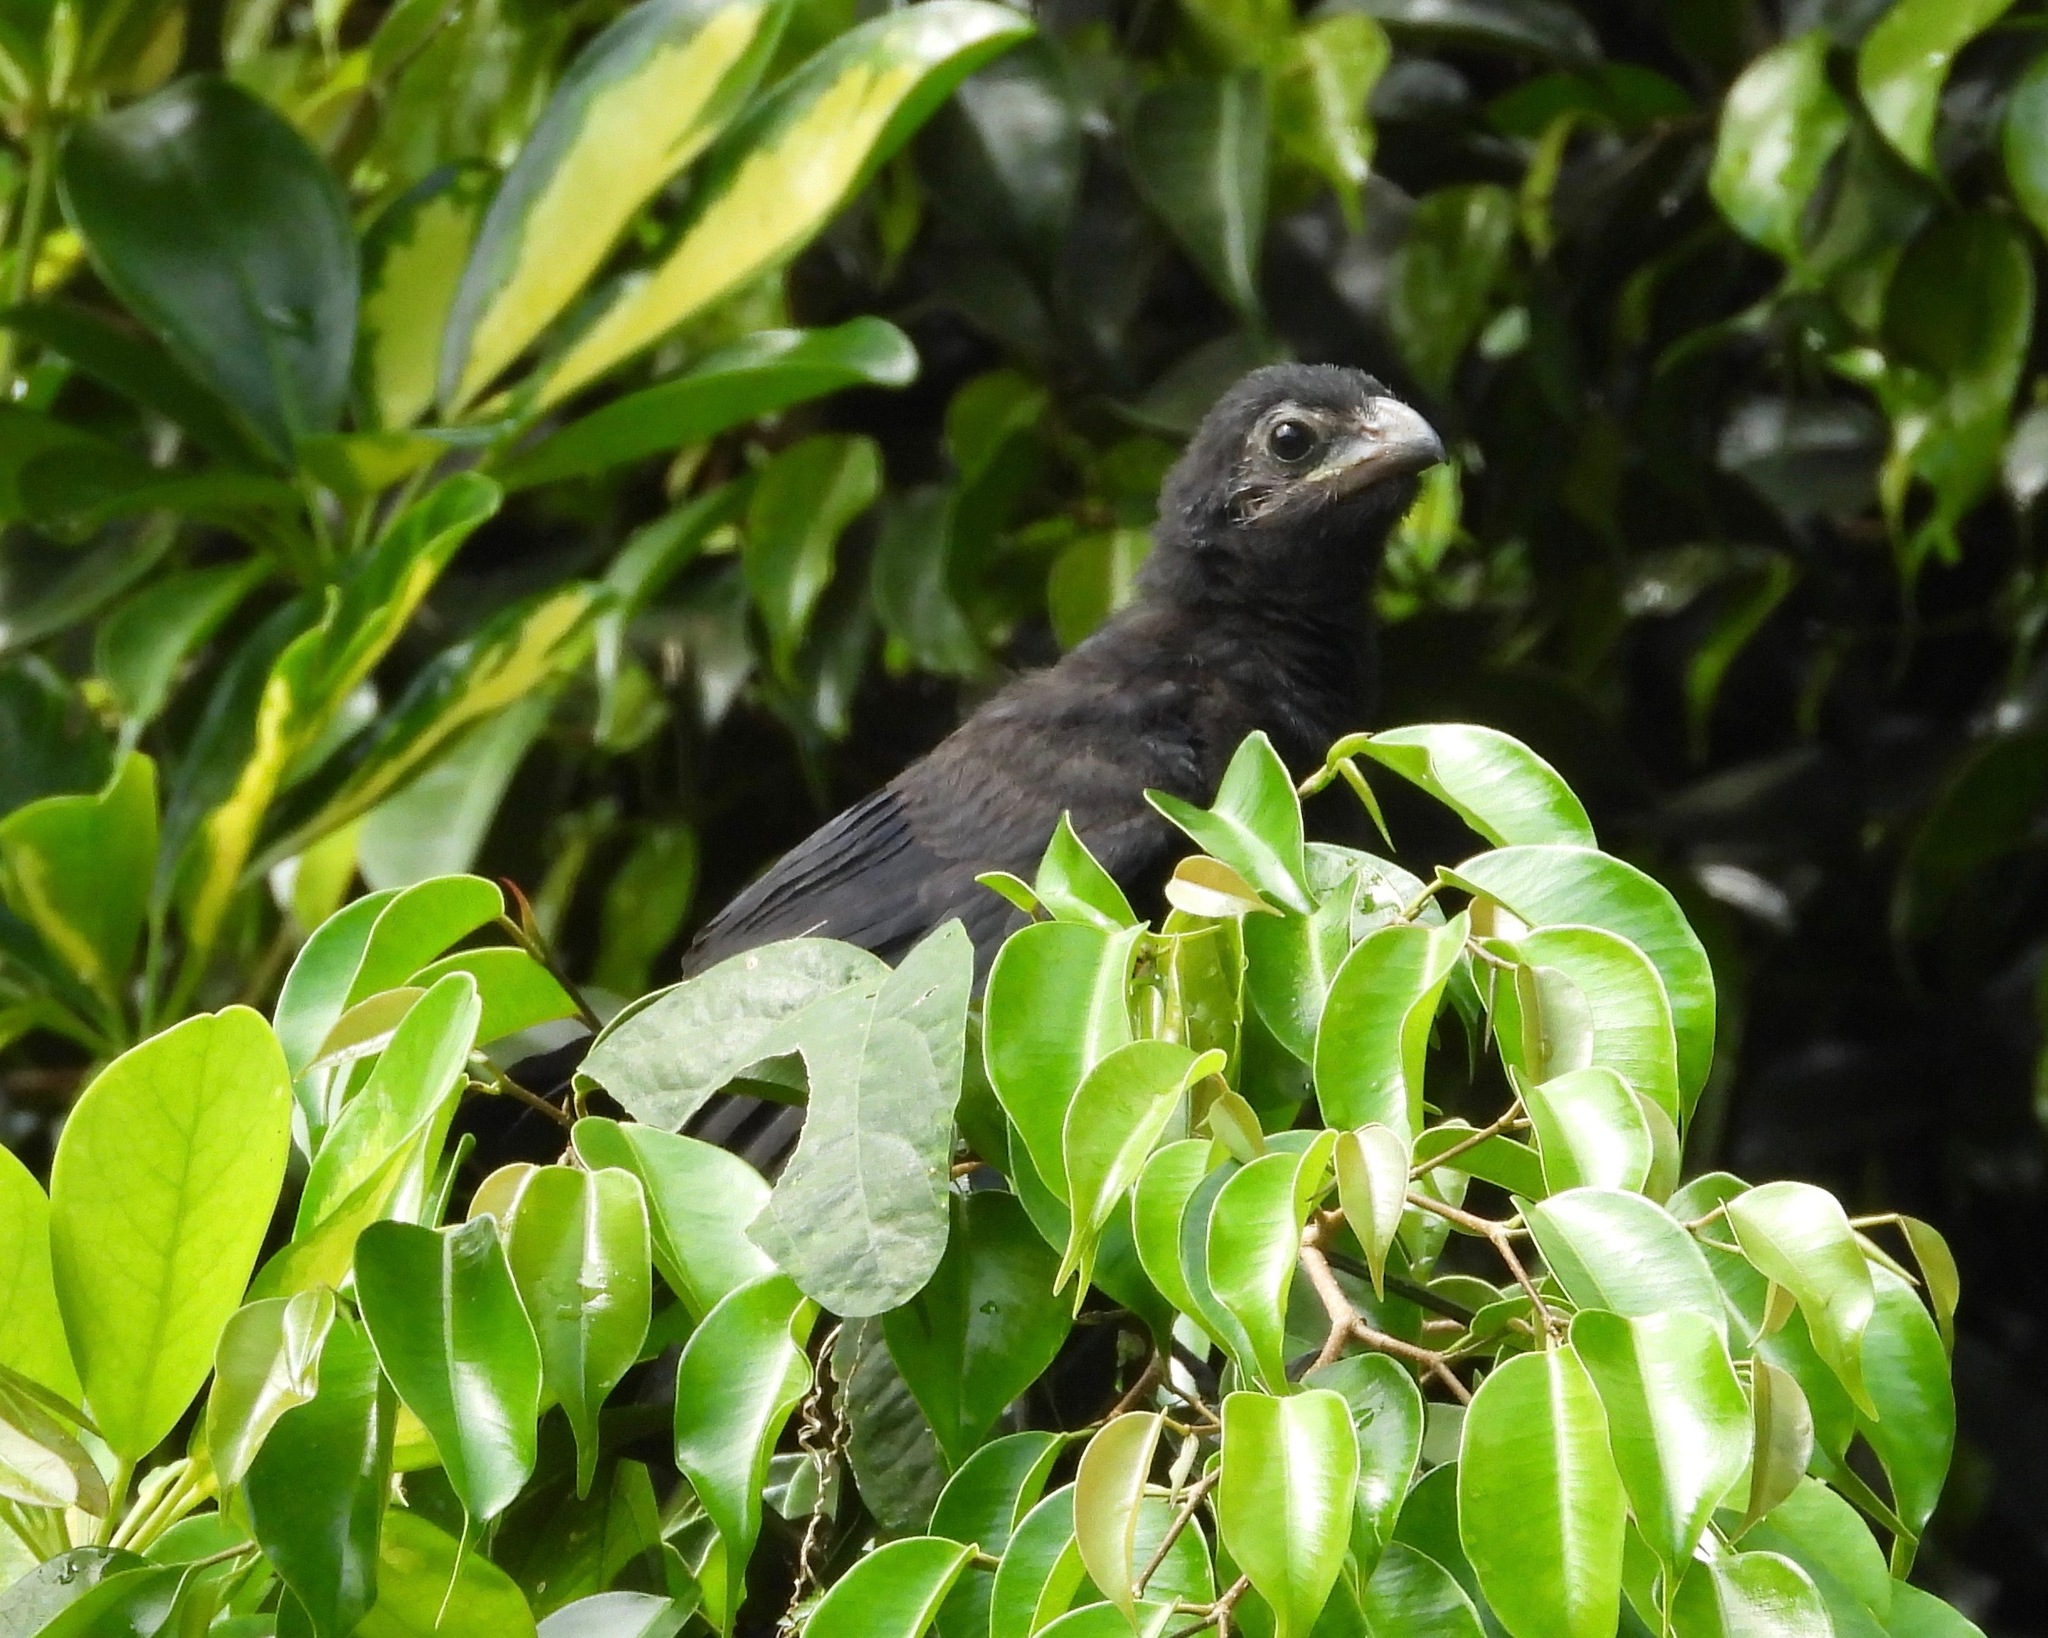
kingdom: Animalia
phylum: Chordata
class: Aves
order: Cuculiformes
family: Cuculidae
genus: Crotophaga
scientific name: Crotophaga sulcirostris
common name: Groove-billed ani
